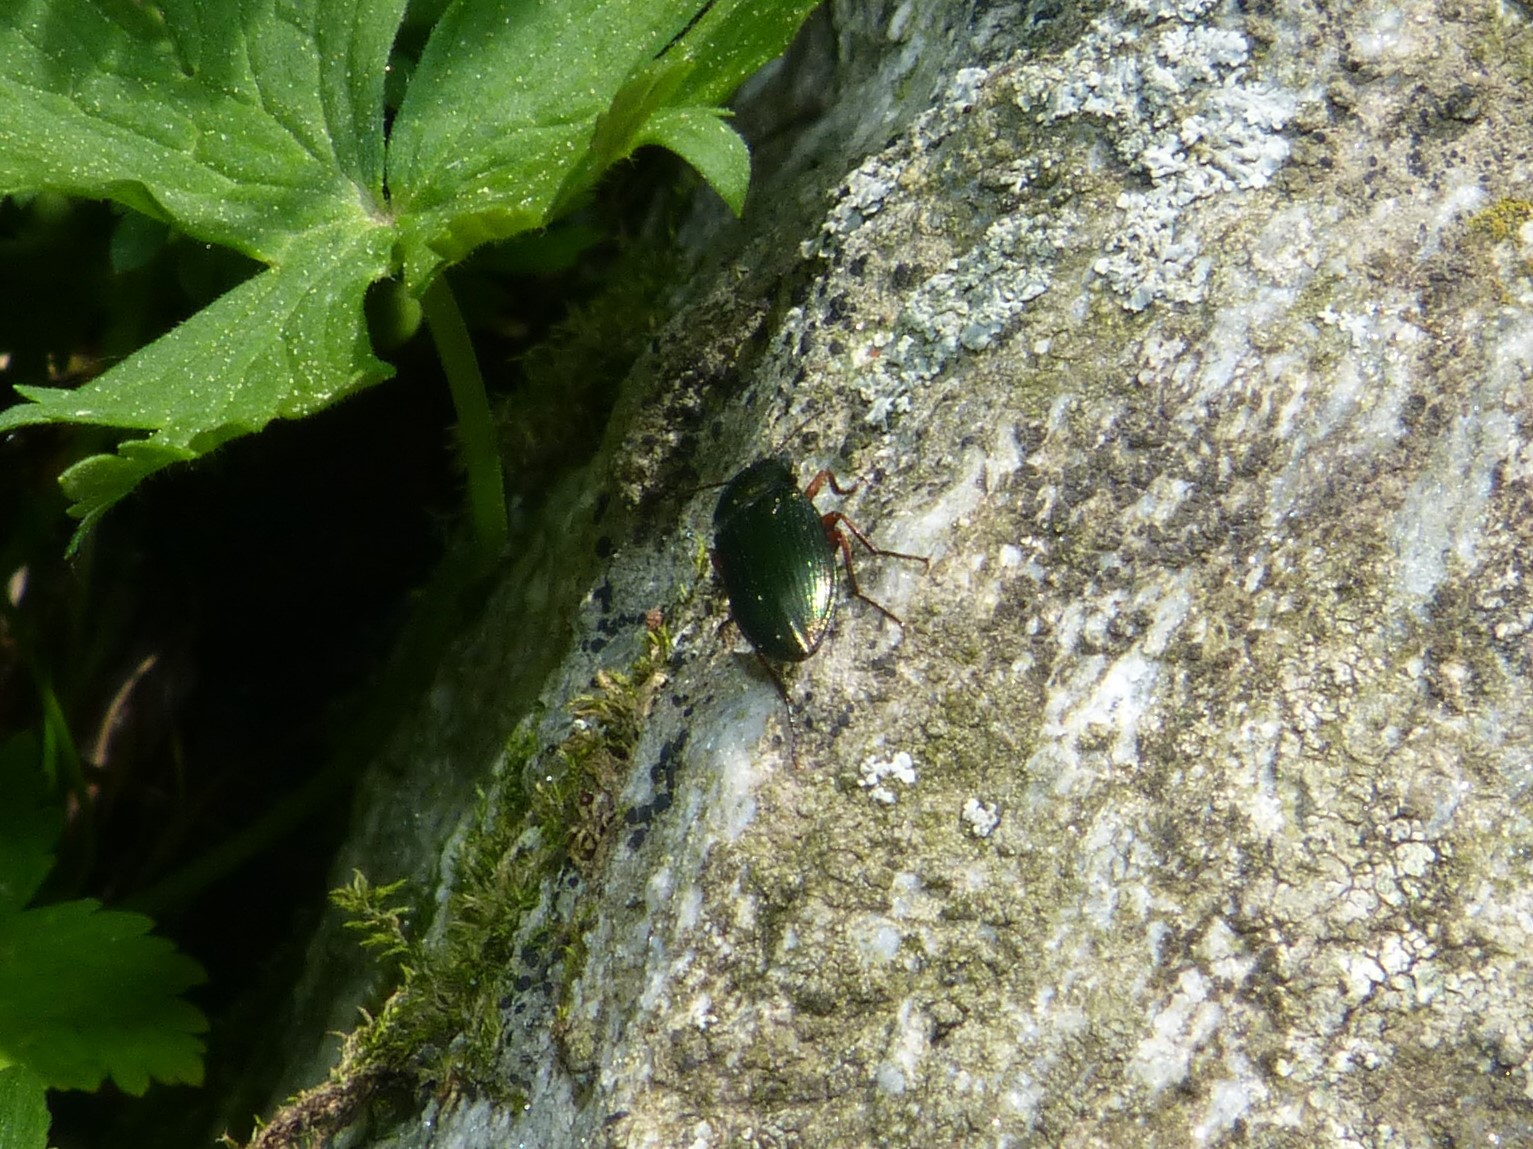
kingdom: Animalia
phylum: Arthropoda
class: Insecta
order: Coleoptera
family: Elateridae
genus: Selatosomus
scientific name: Selatosomus aeneus
